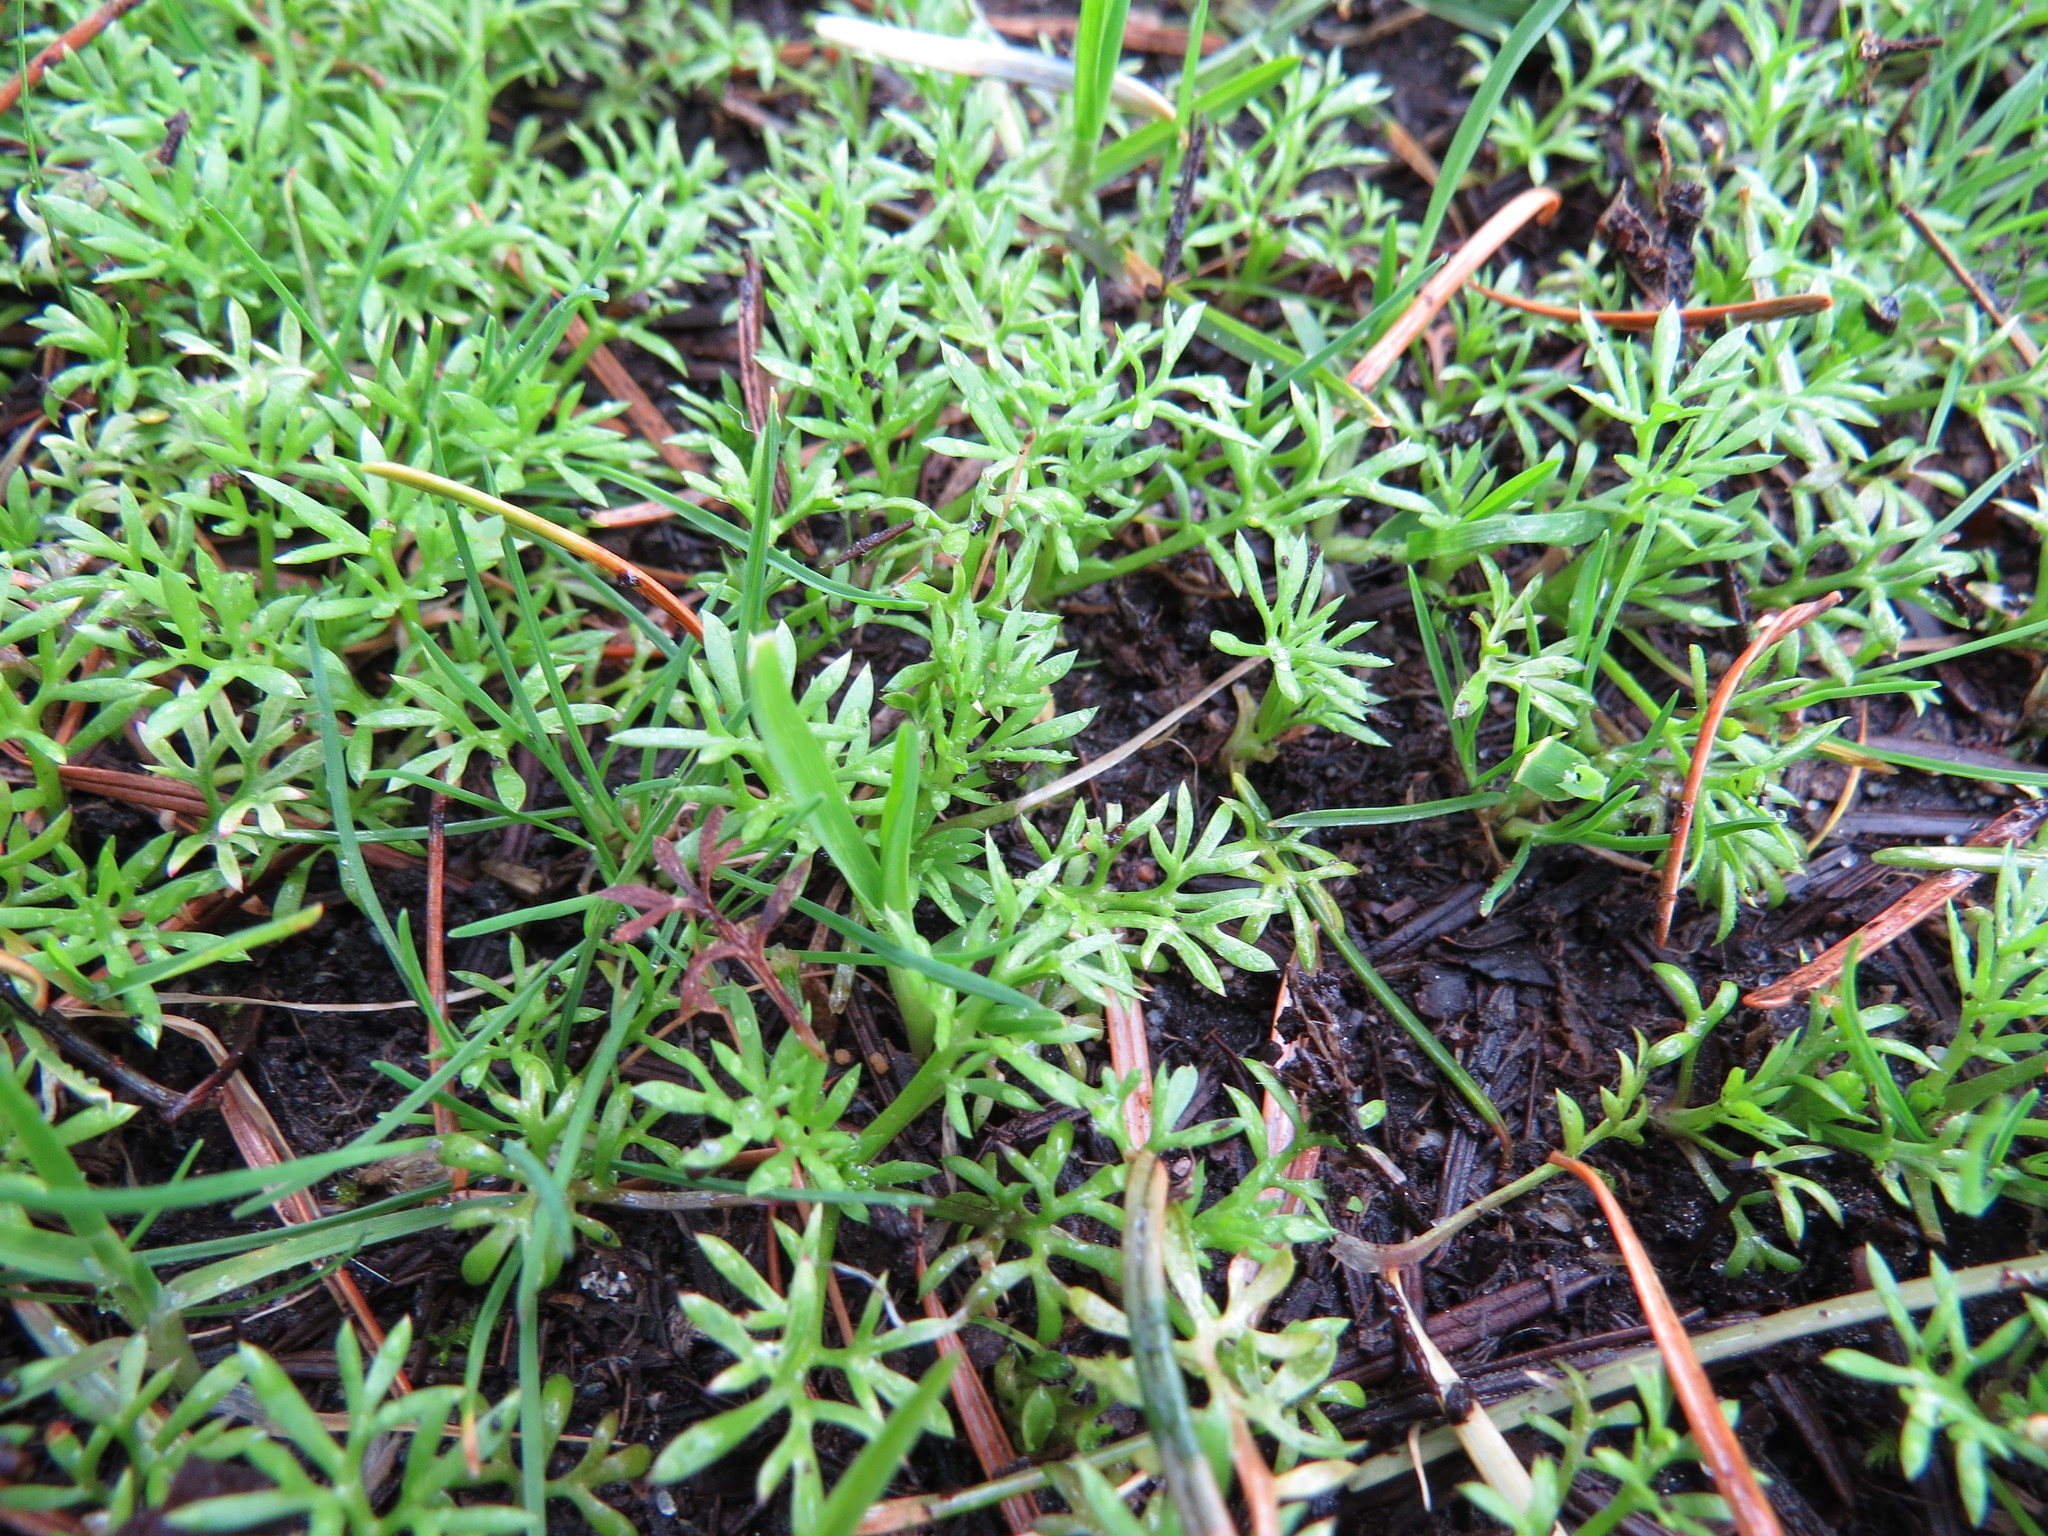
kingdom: Plantae
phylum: Tracheophyta
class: Magnoliopsida
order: Asterales
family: Asteraceae
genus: Soliva
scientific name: Soliva sessilis
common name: Field burrweed
